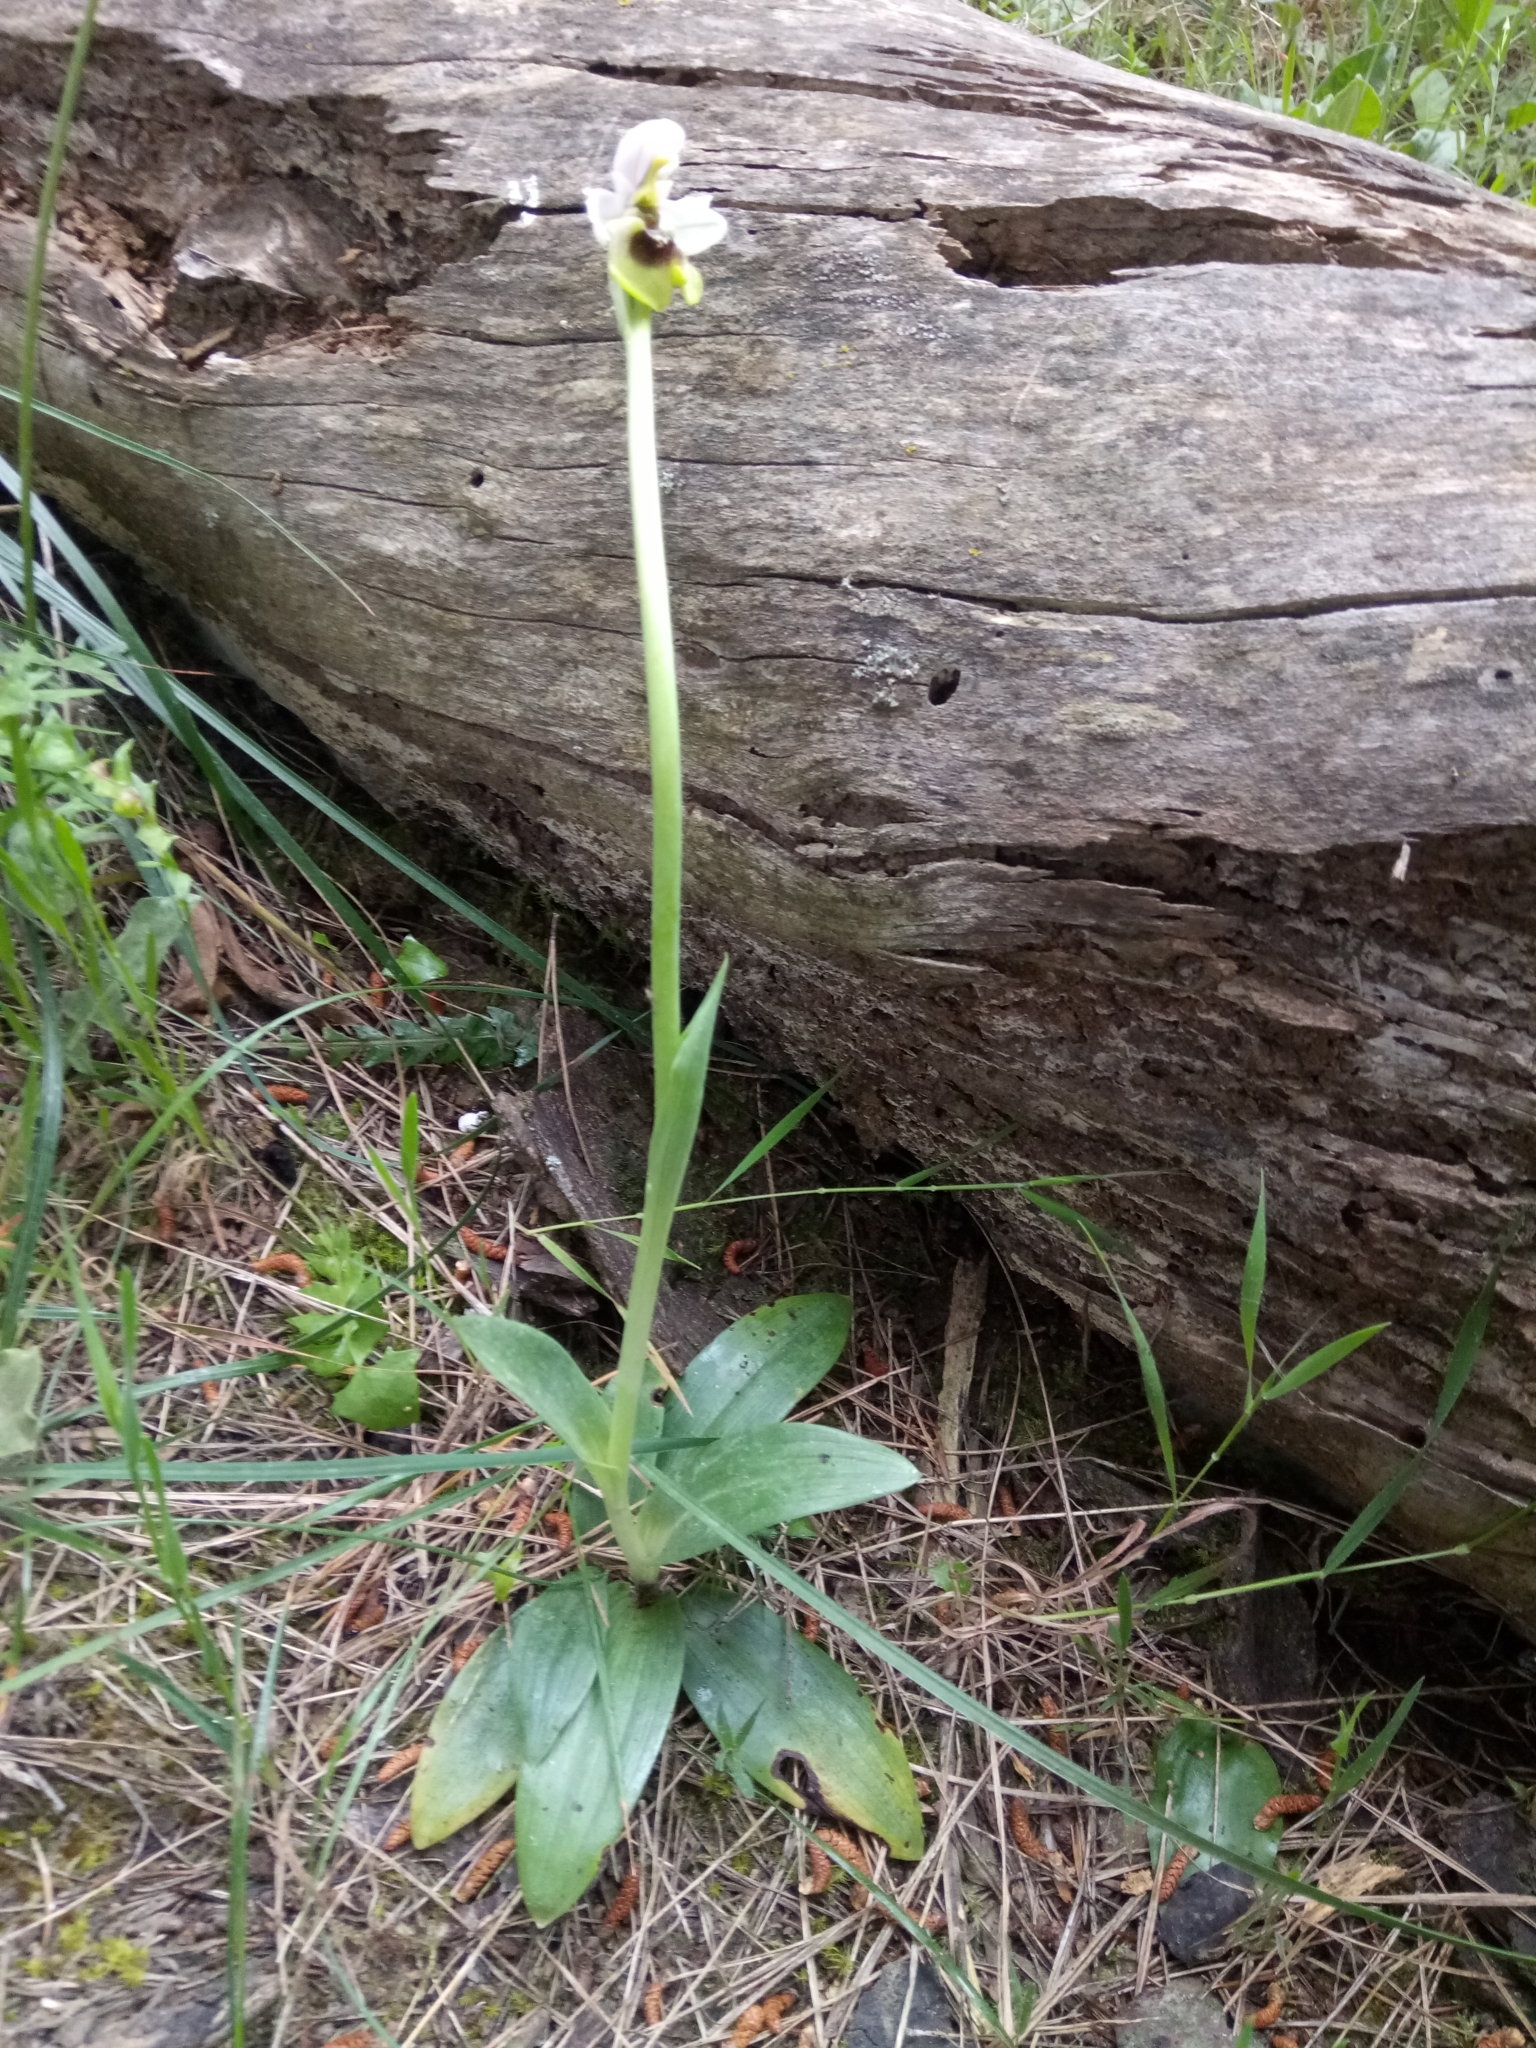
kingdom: Plantae
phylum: Tracheophyta
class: Liliopsida
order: Asparagales
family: Orchidaceae
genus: Ophrys
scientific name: Ophrys tenthredinifera
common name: Sawfly orchid
